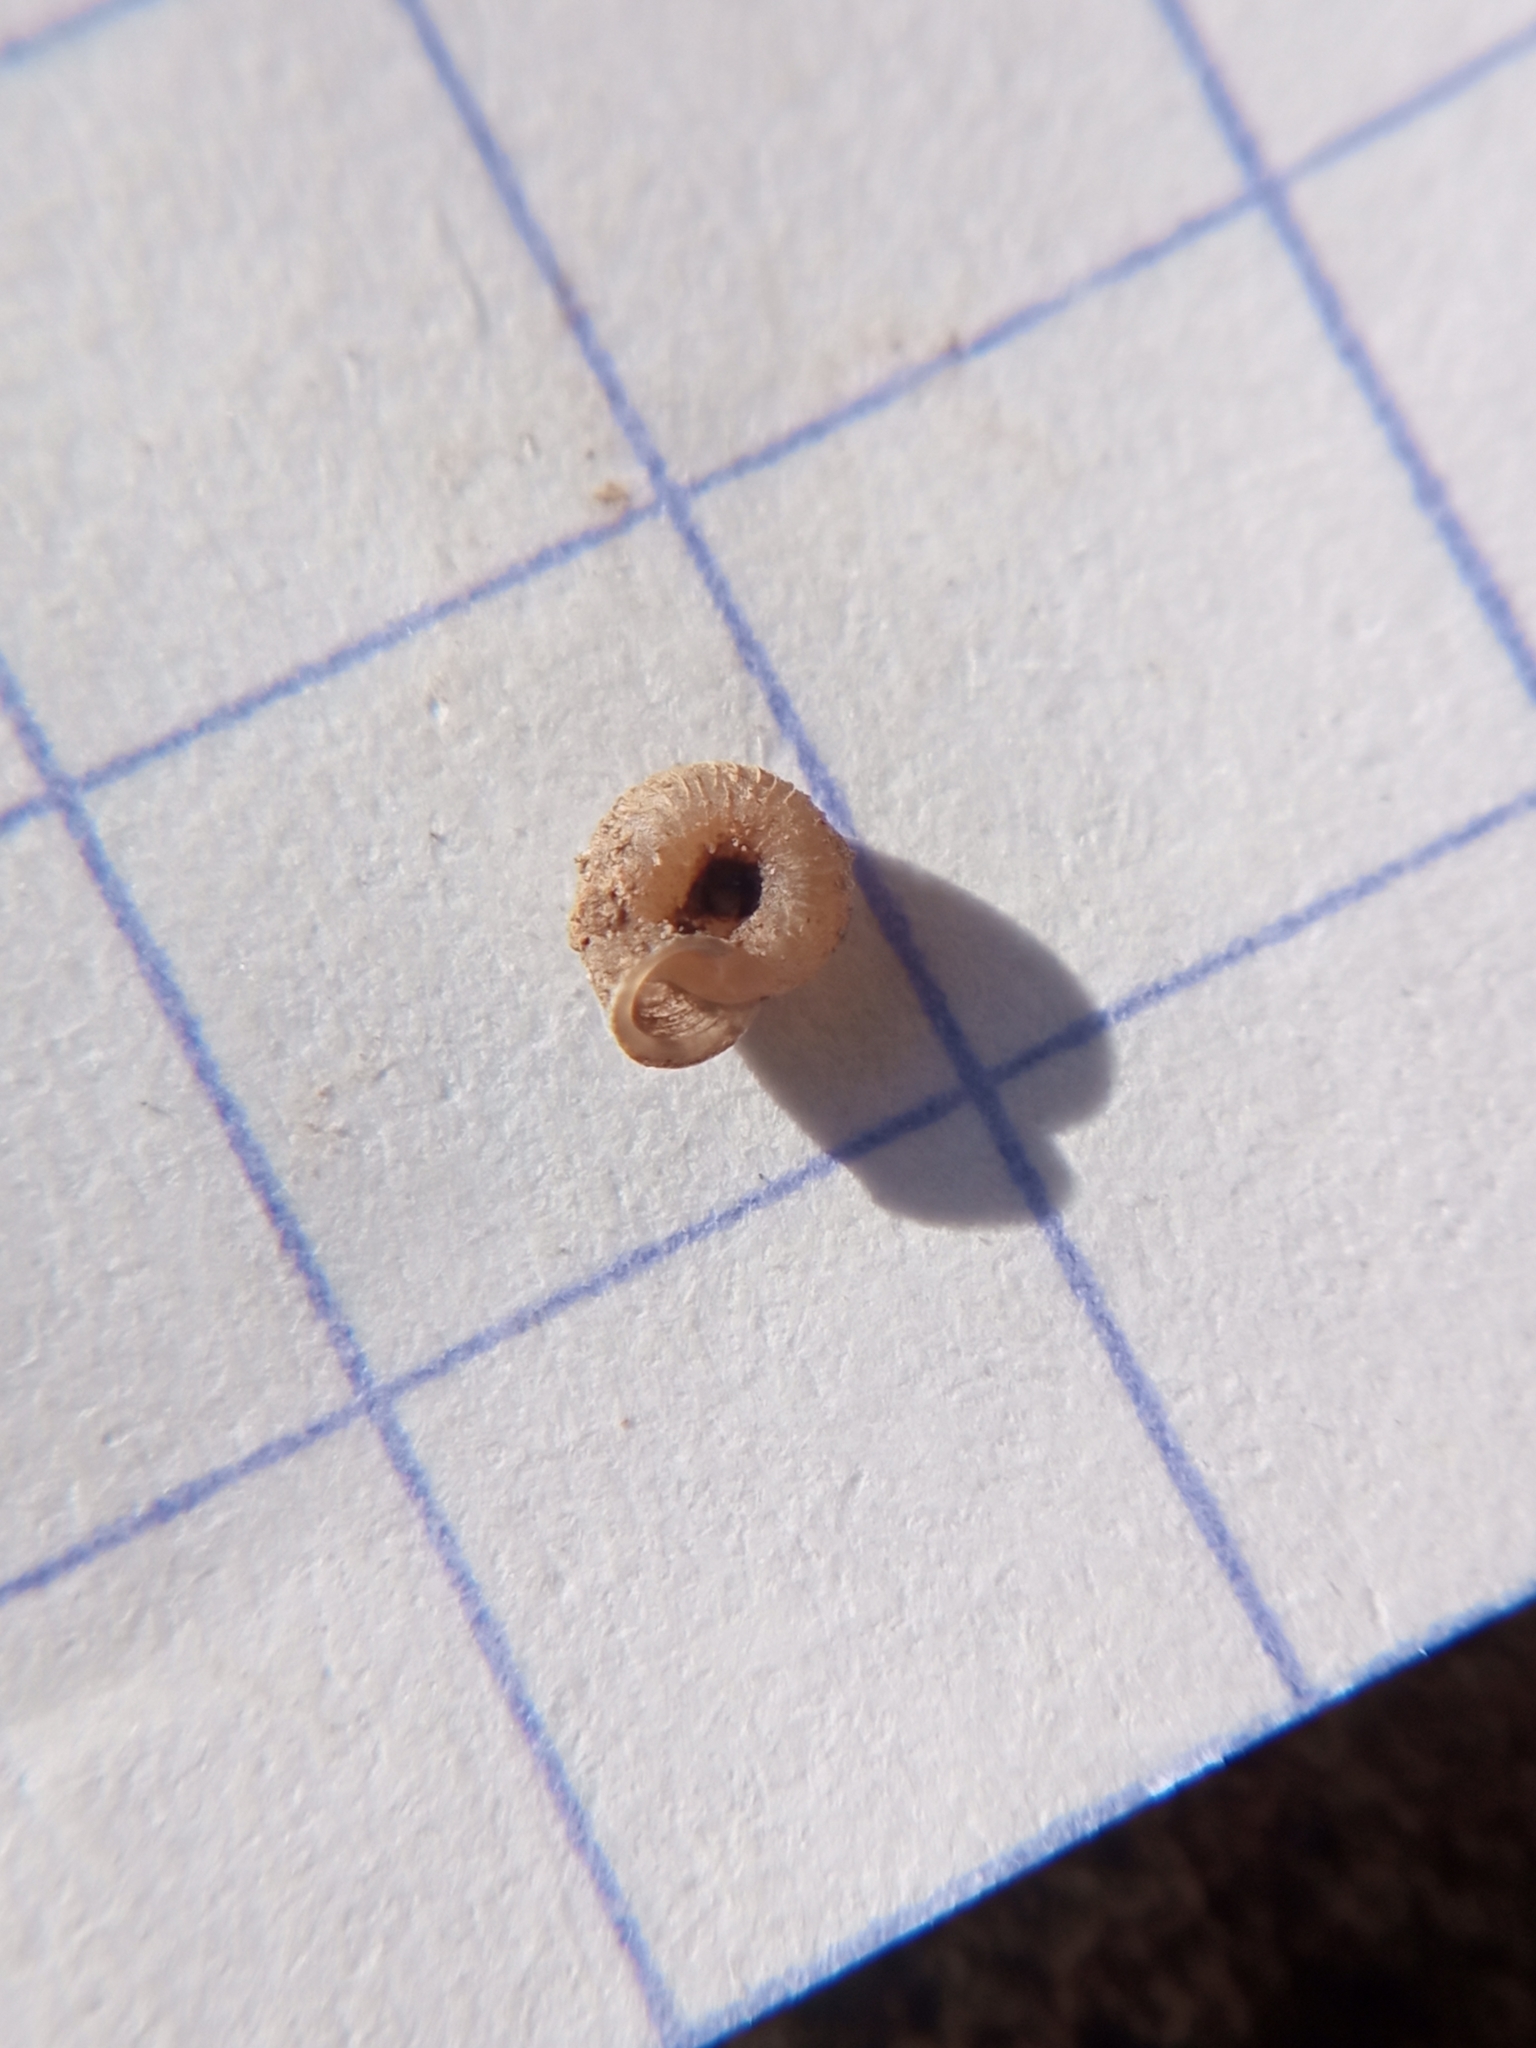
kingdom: Animalia
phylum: Mollusca
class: Gastropoda
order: Stylommatophora
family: Valloniidae
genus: Vallonia
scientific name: Vallonia costata
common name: Ribbed grass snail
